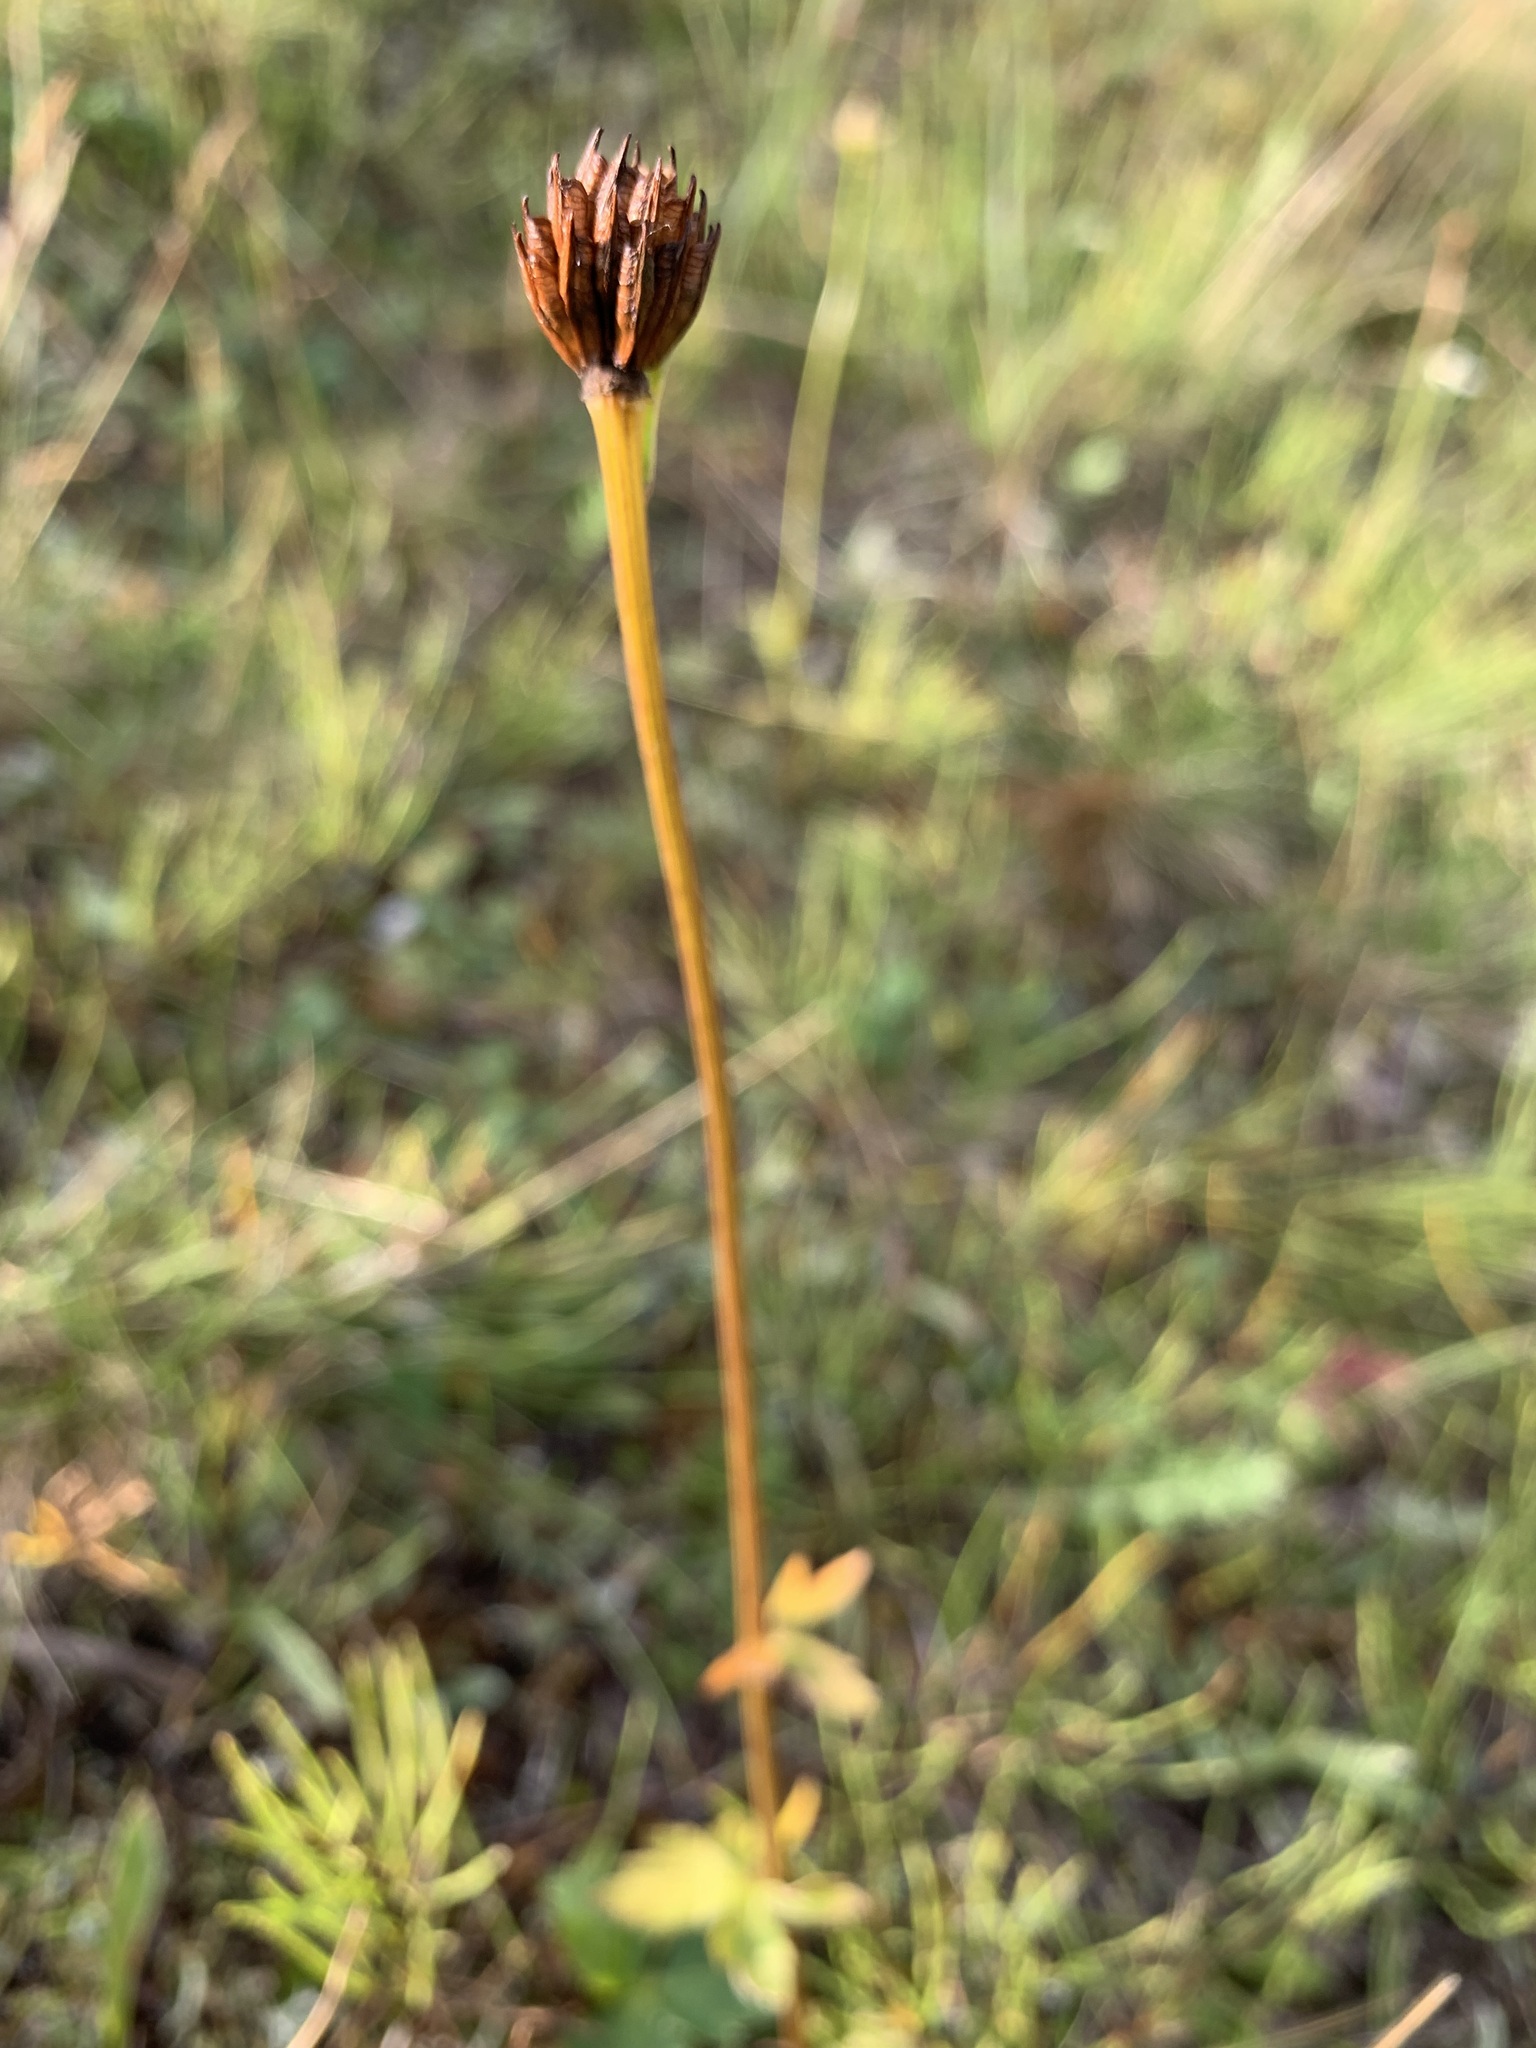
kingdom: Plantae
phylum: Tracheophyta
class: Magnoliopsida
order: Ranunculales
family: Ranunculaceae
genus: Trollius
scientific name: Trollius asiaticus
